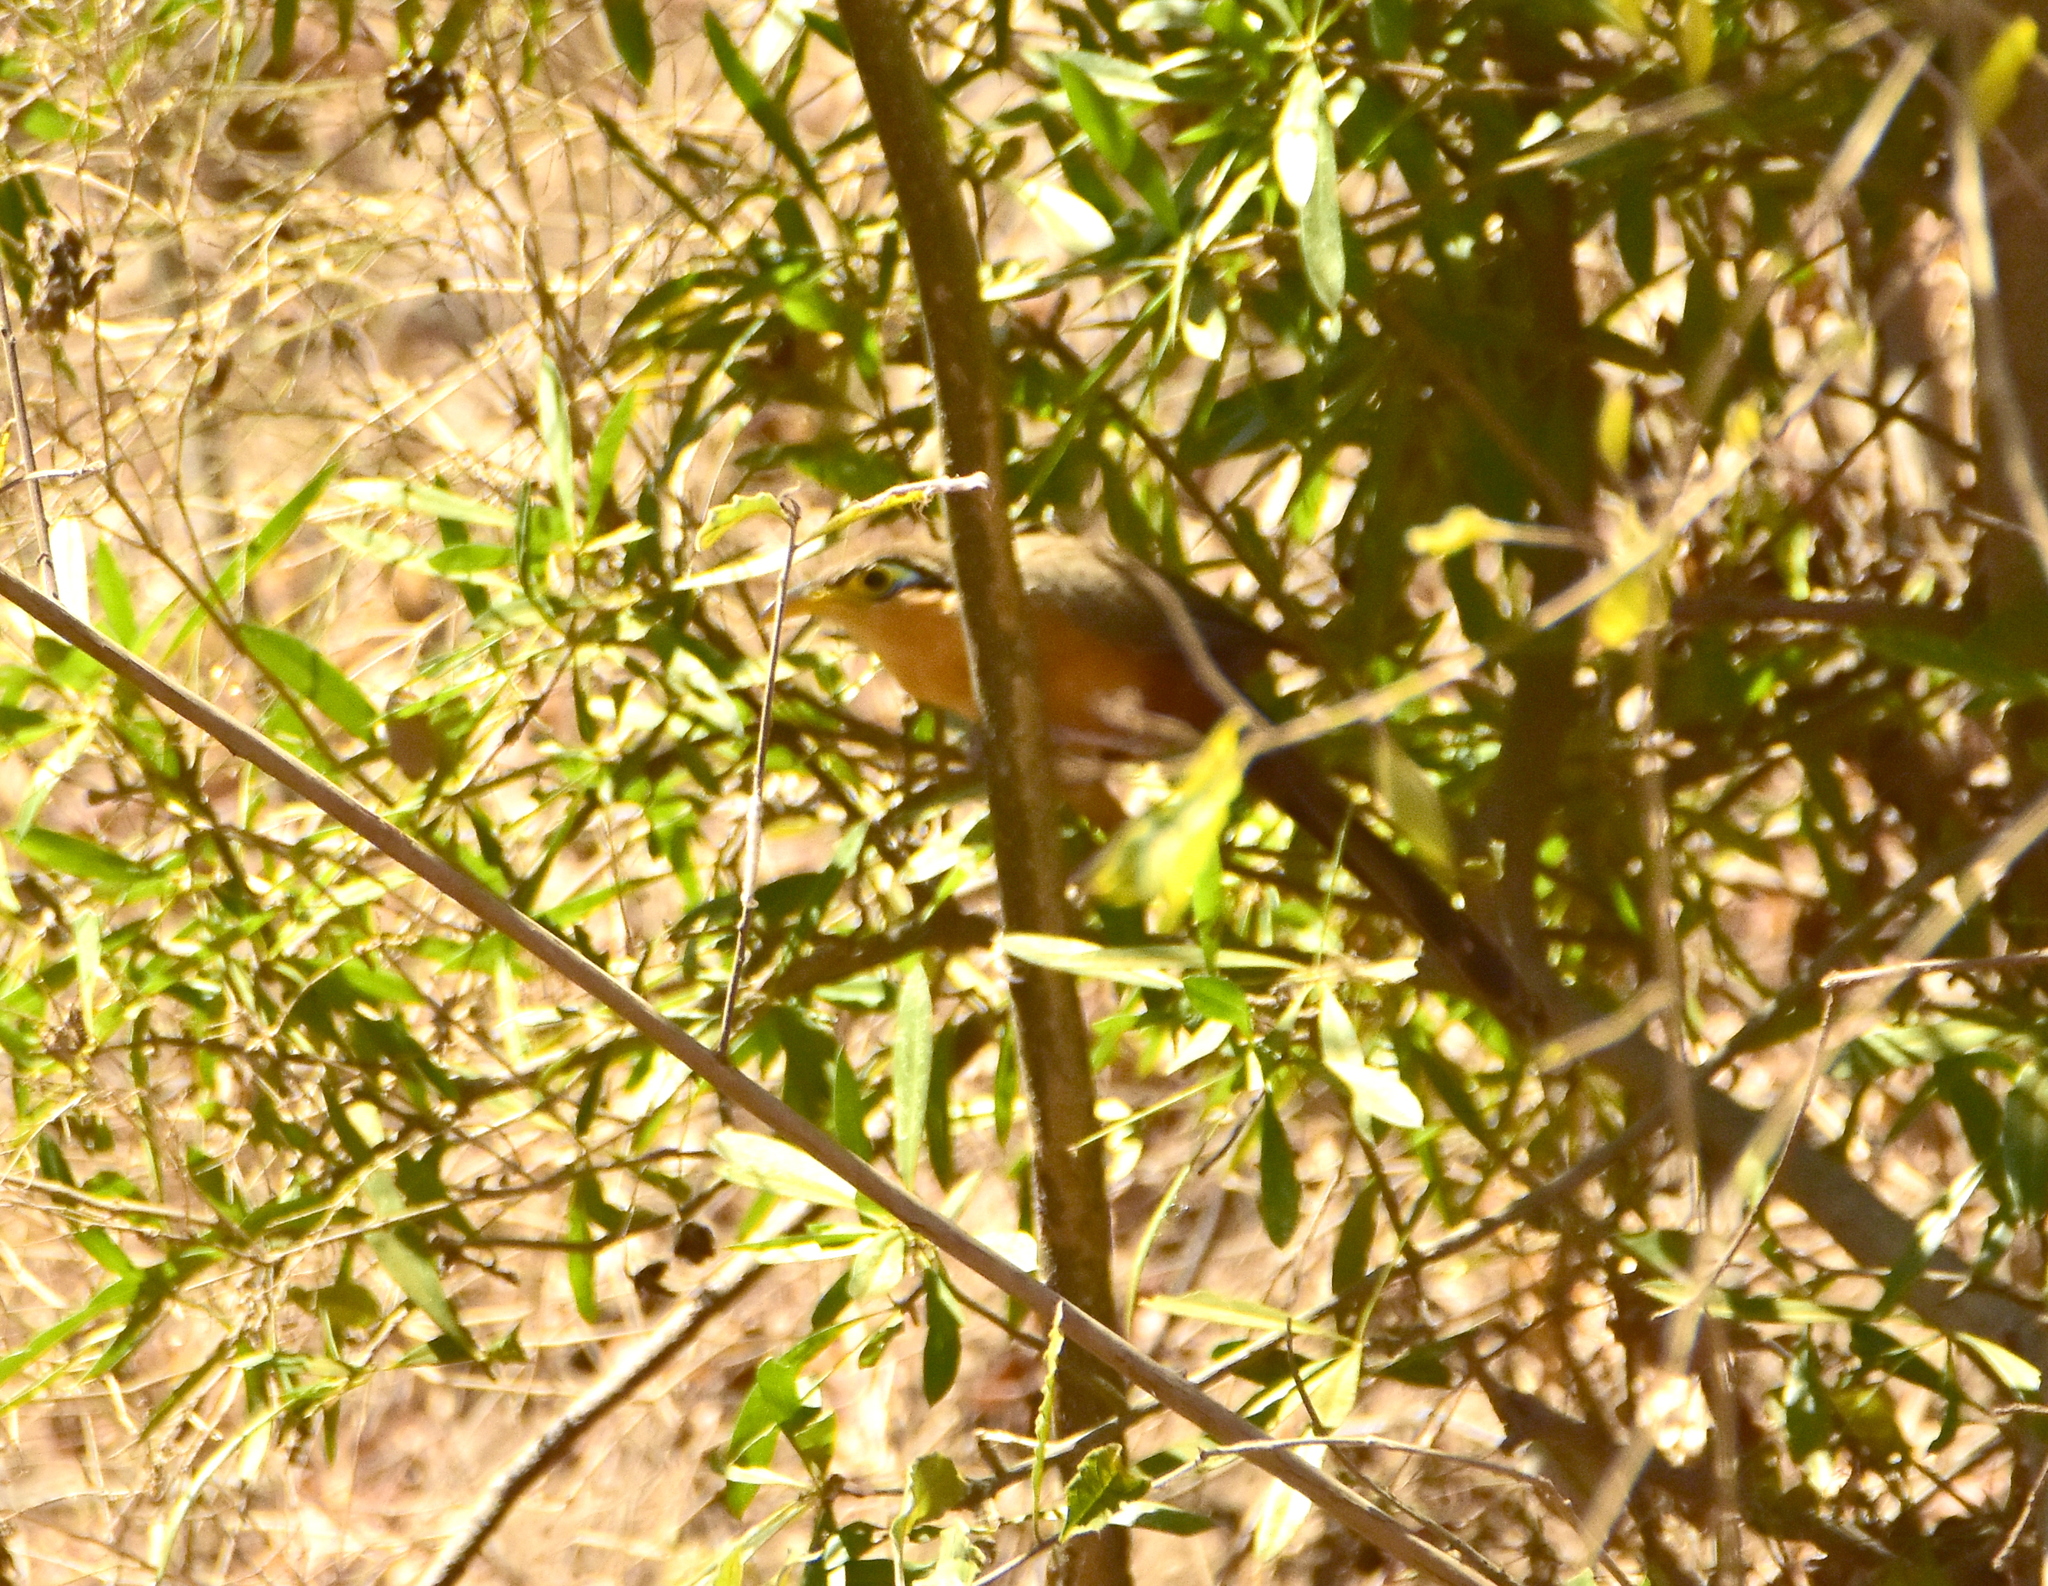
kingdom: Animalia
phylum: Chordata
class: Aves
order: Cuculiformes
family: Cuculidae
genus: Morococcyx
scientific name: Morococcyx erythropygus
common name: Lesser ground-cuckoo
